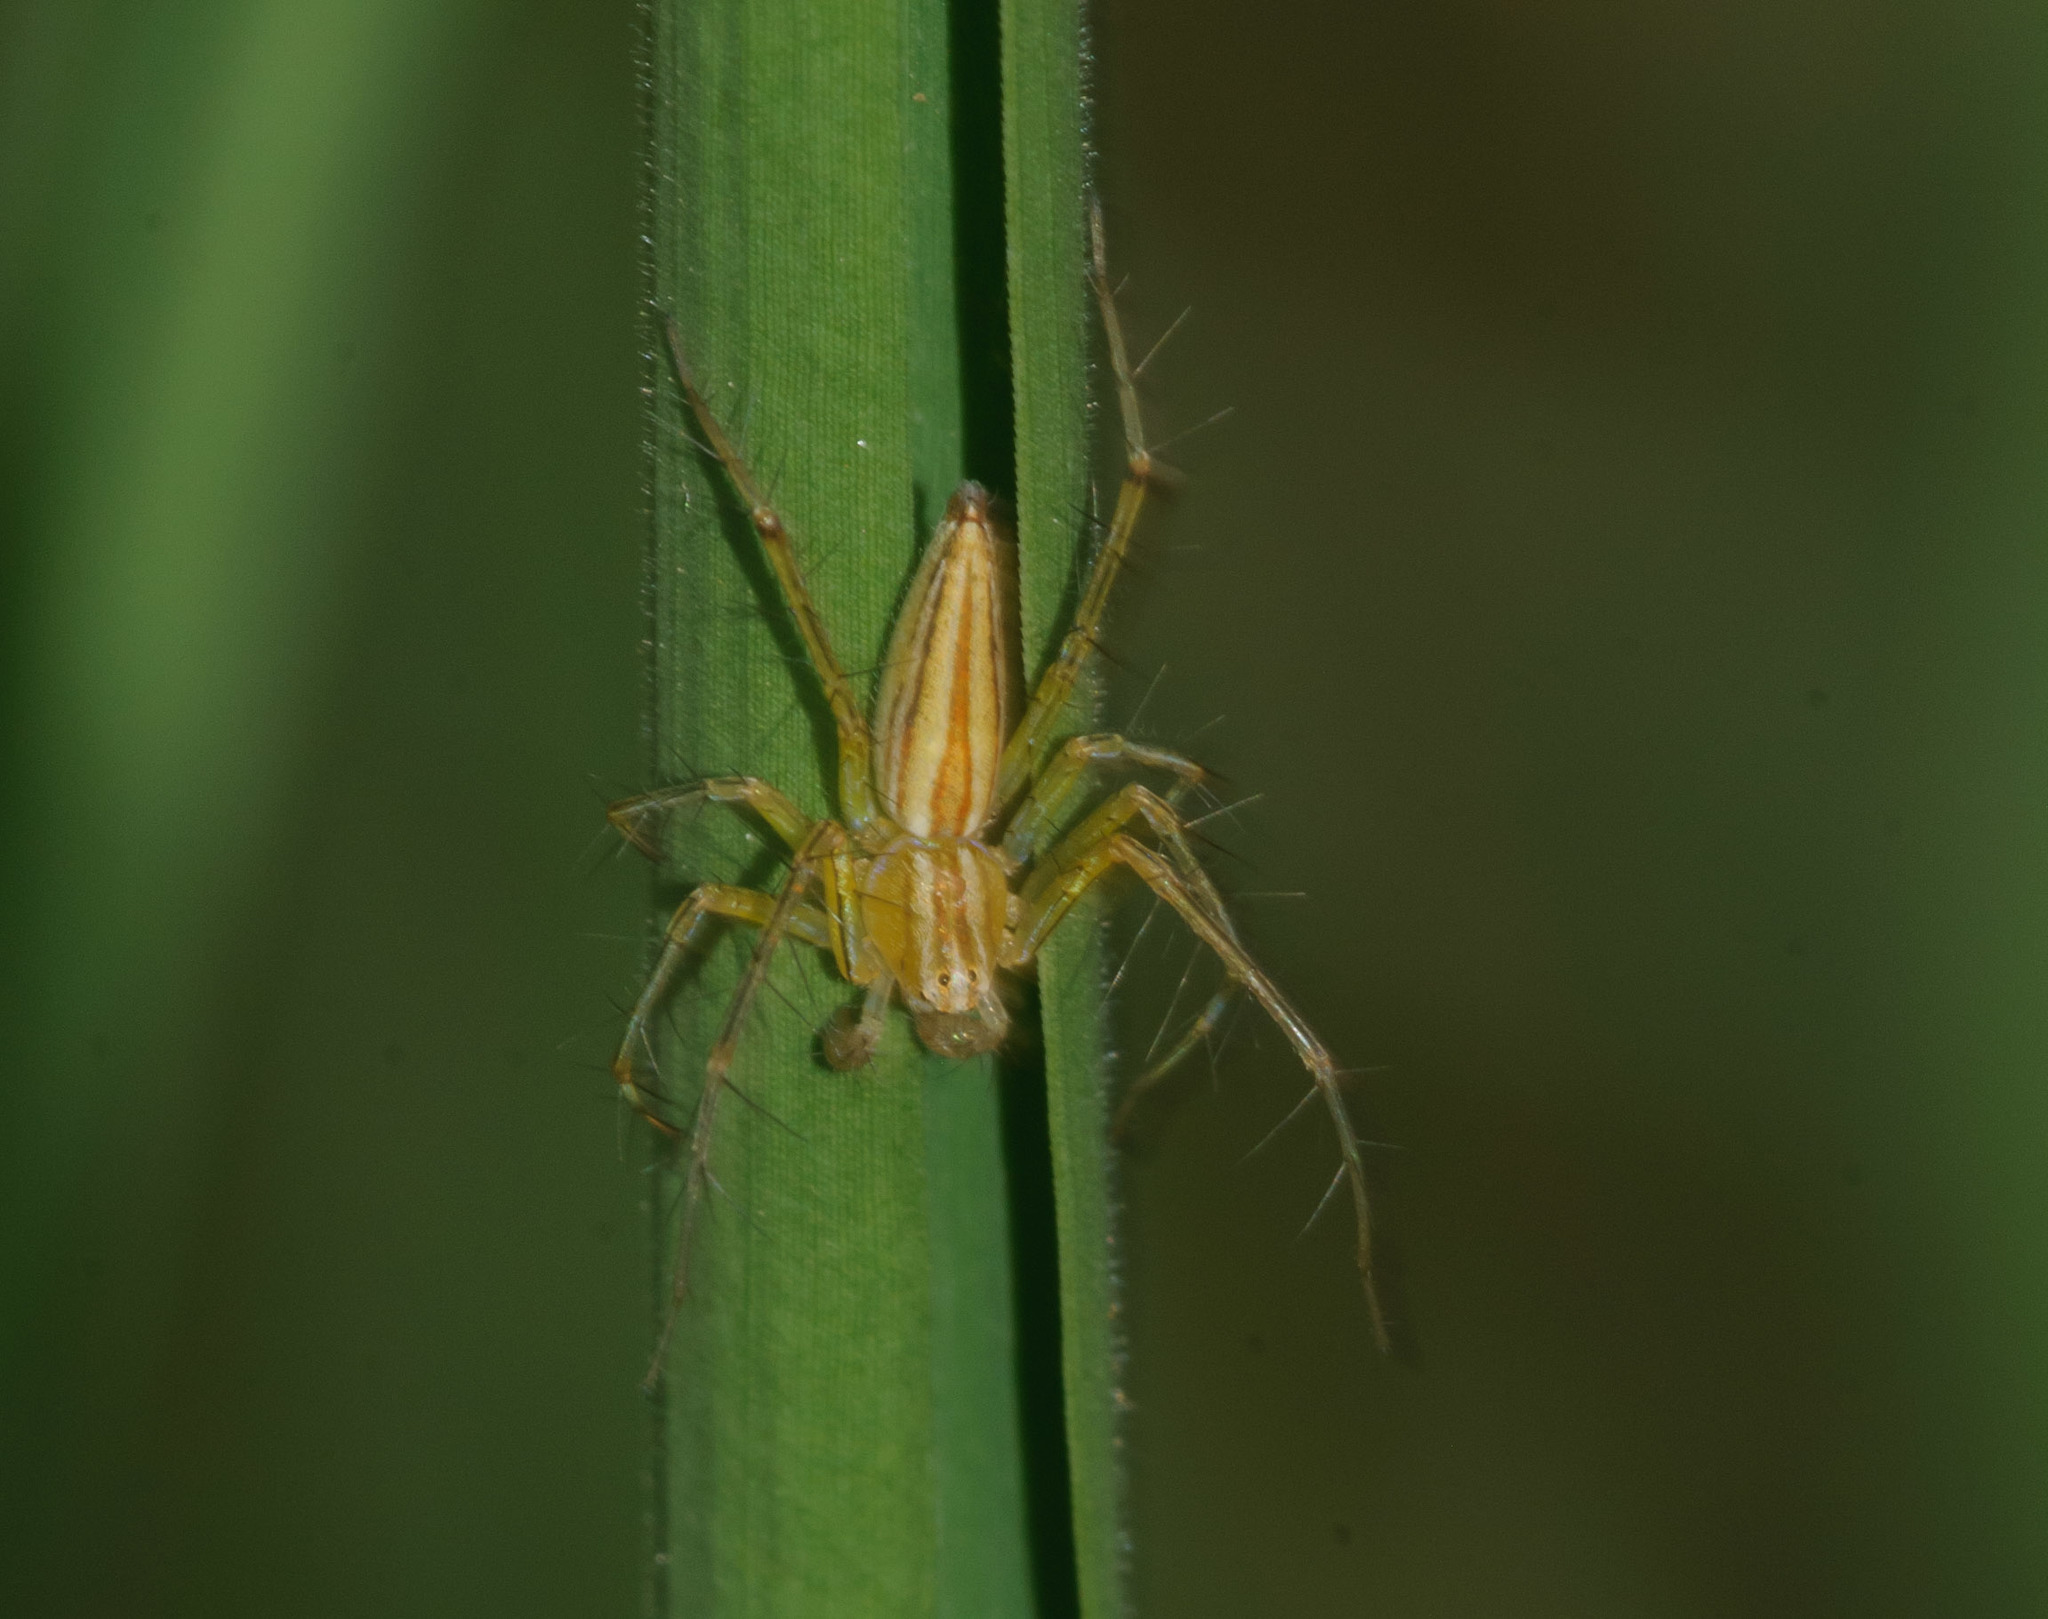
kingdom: Animalia
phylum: Arthropoda
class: Arachnida
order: Araneae
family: Oxyopidae
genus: Oxyopes
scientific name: Oxyopes macilentus
